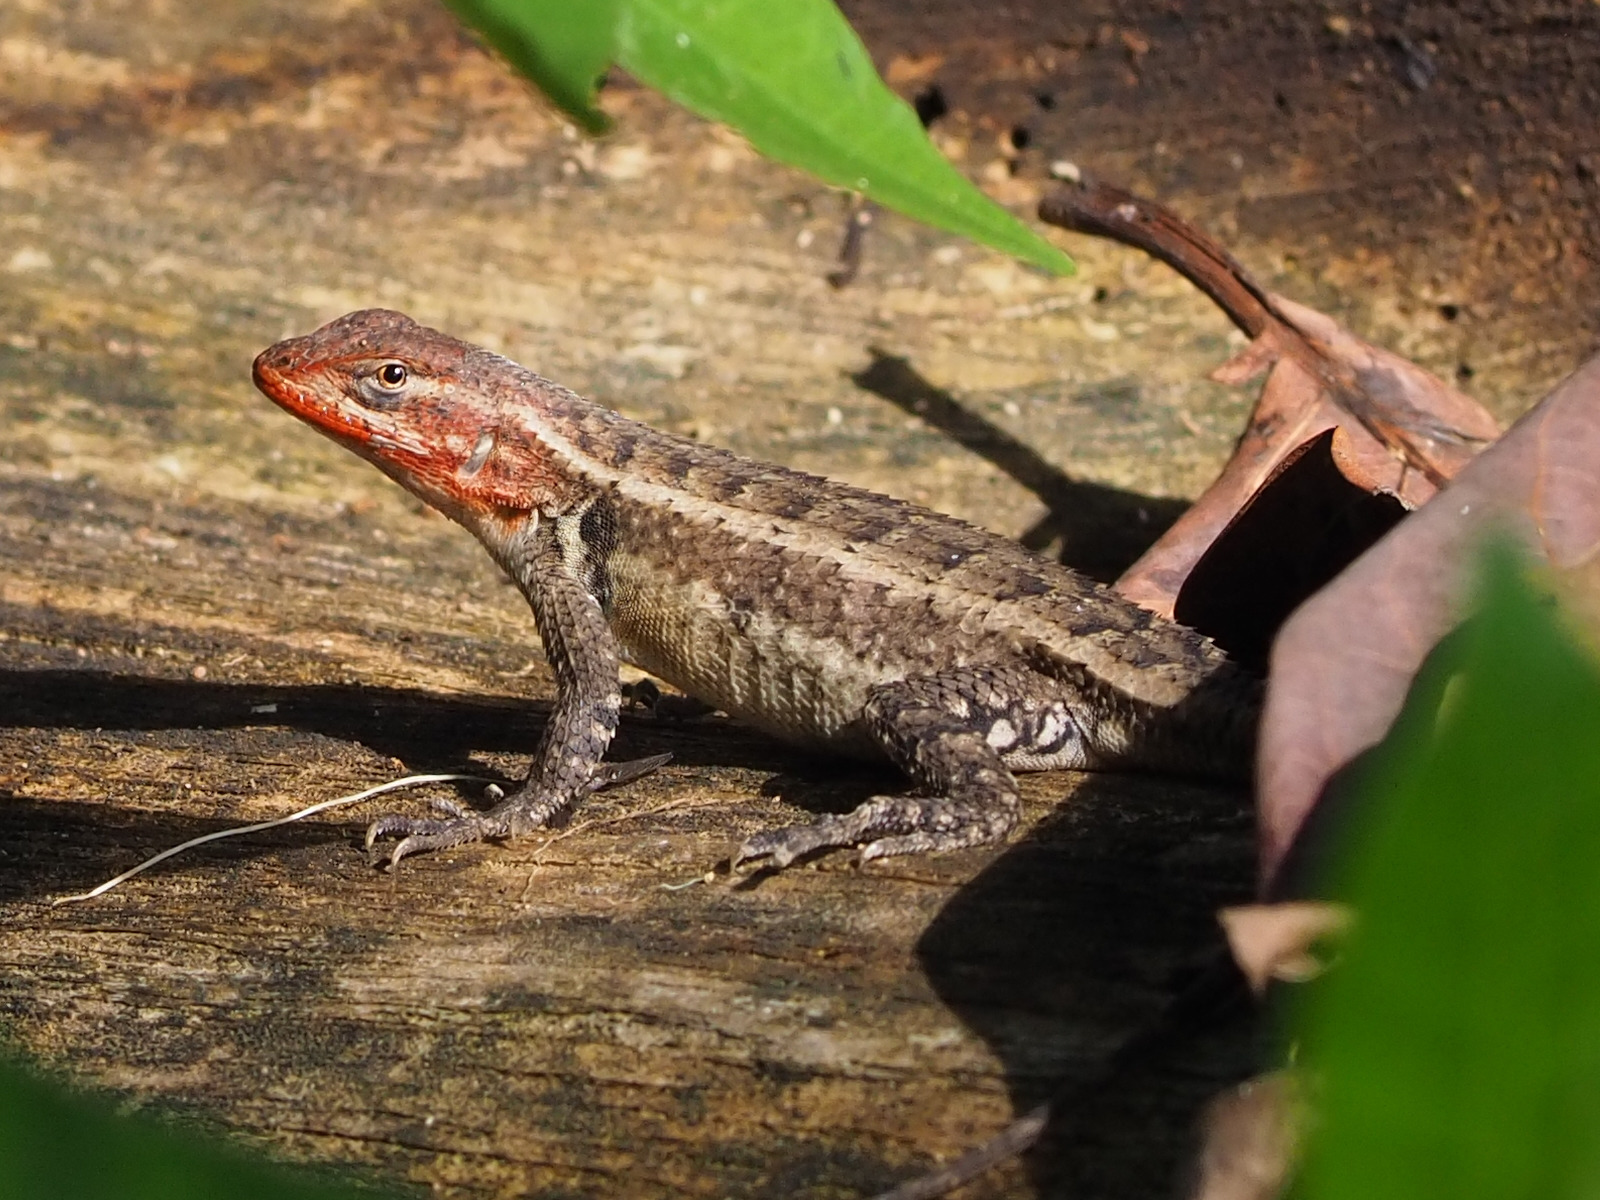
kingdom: Animalia
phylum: Chordata
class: Squamata
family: Phrynosomatidae
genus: Sceloporus
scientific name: Sceloporus variabilis
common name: Rosebelly lizard
